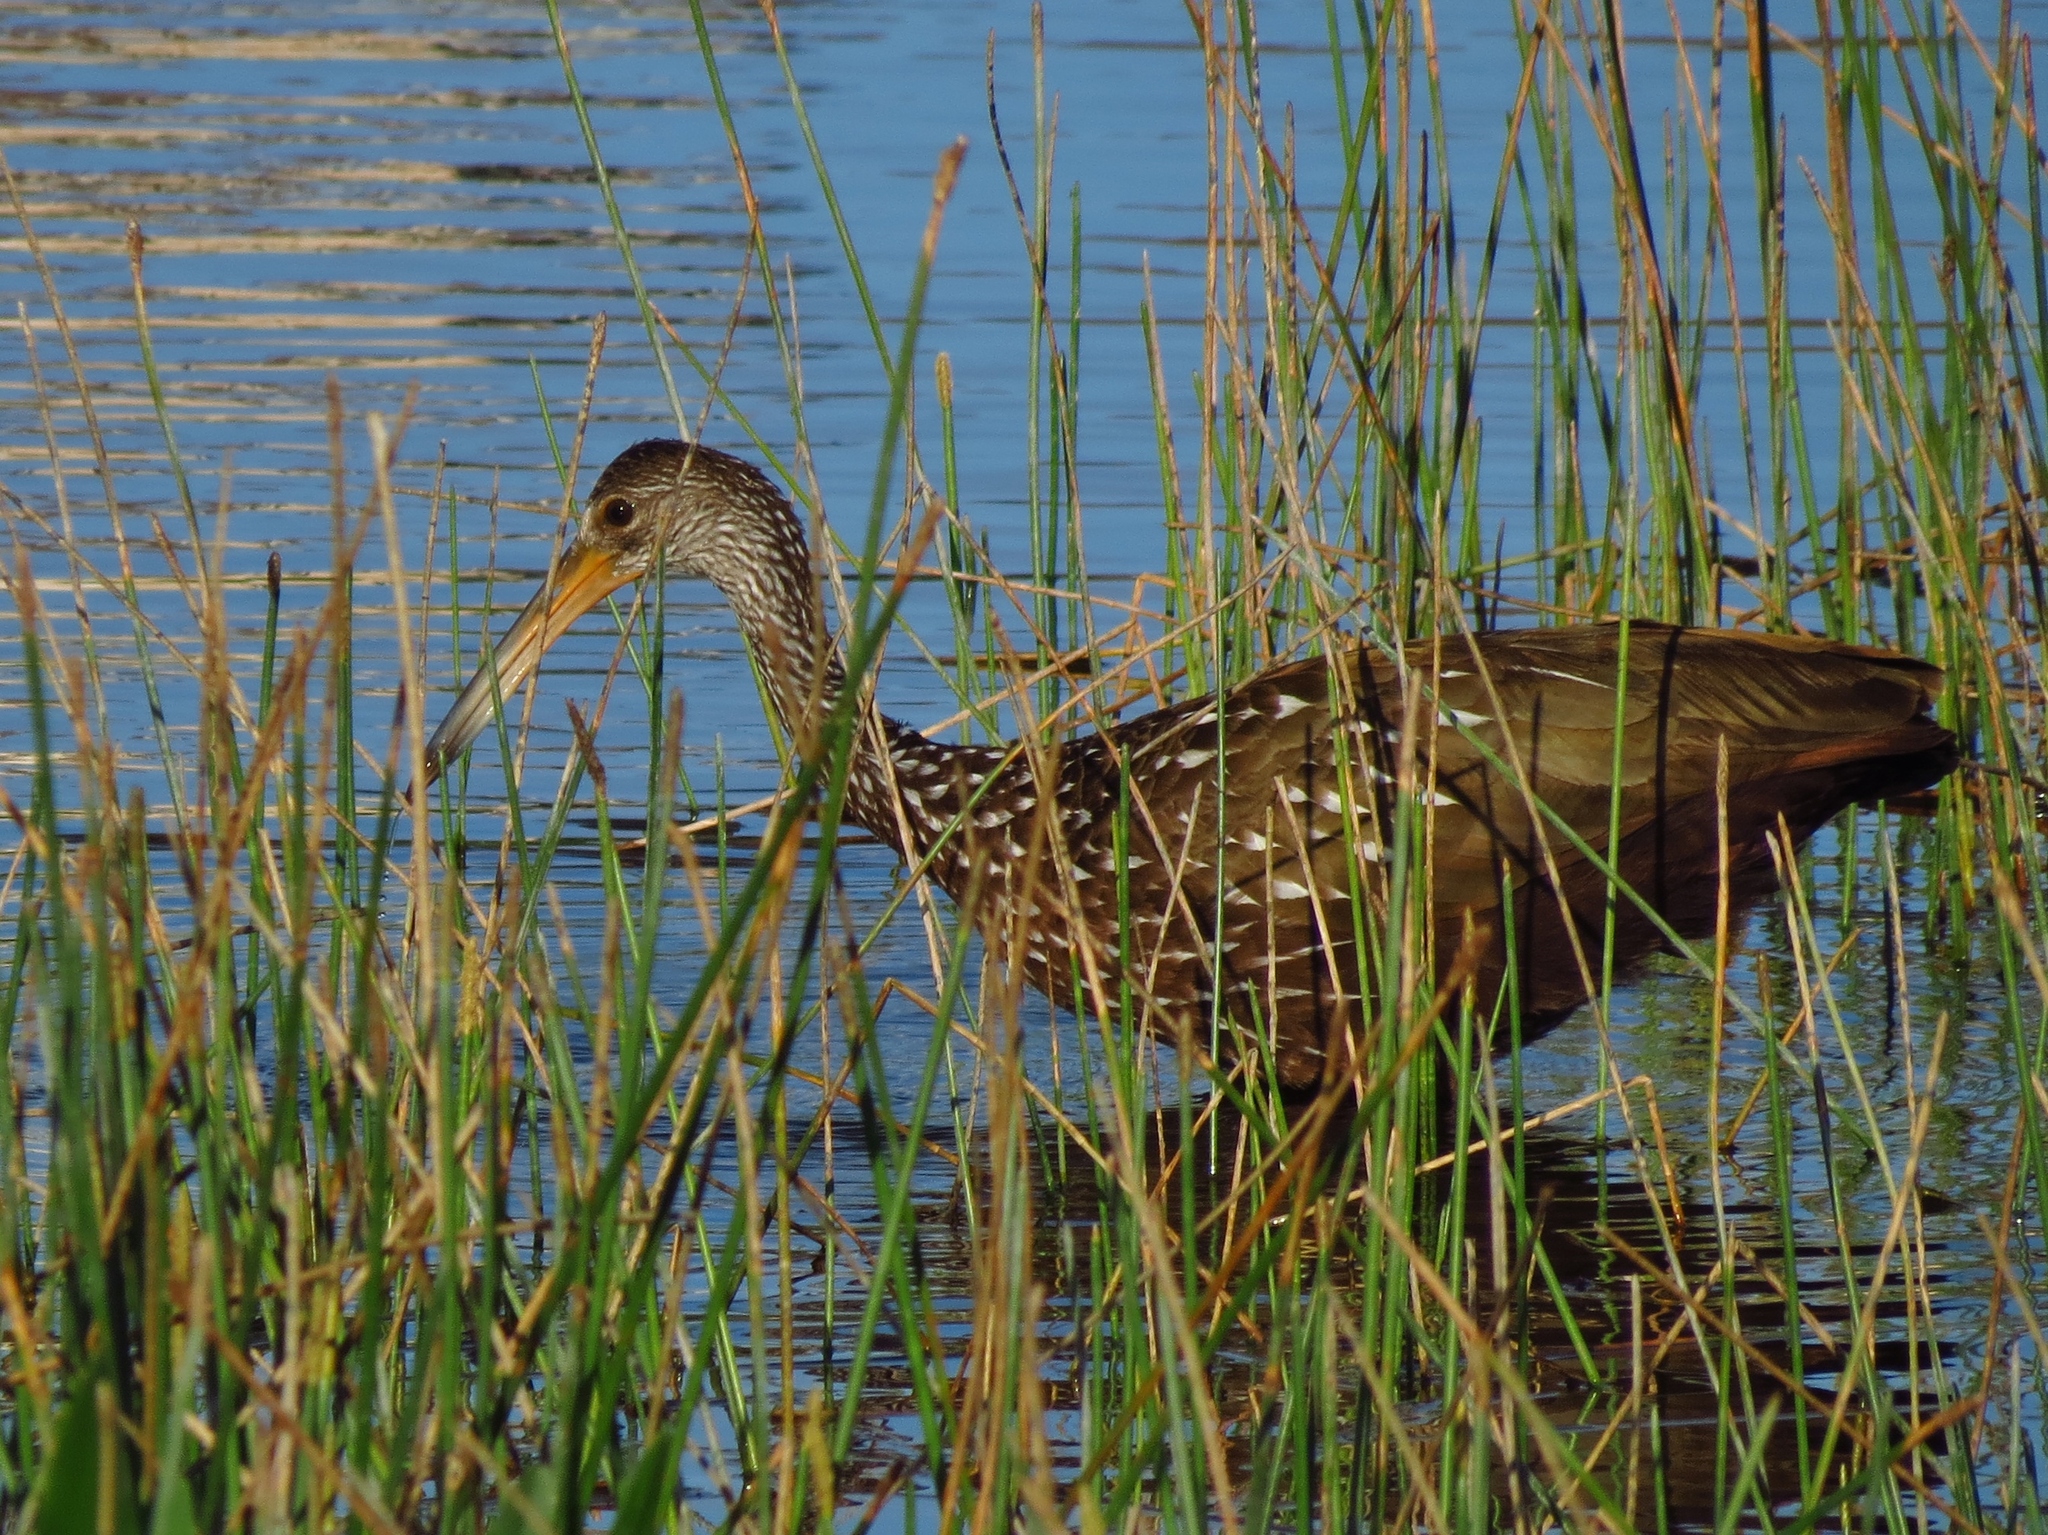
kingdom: Animalia
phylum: Chordata
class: Aves
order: Gruiformes
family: Aramidae
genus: Aramus
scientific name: Aramus guarauna
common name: Limpkin
